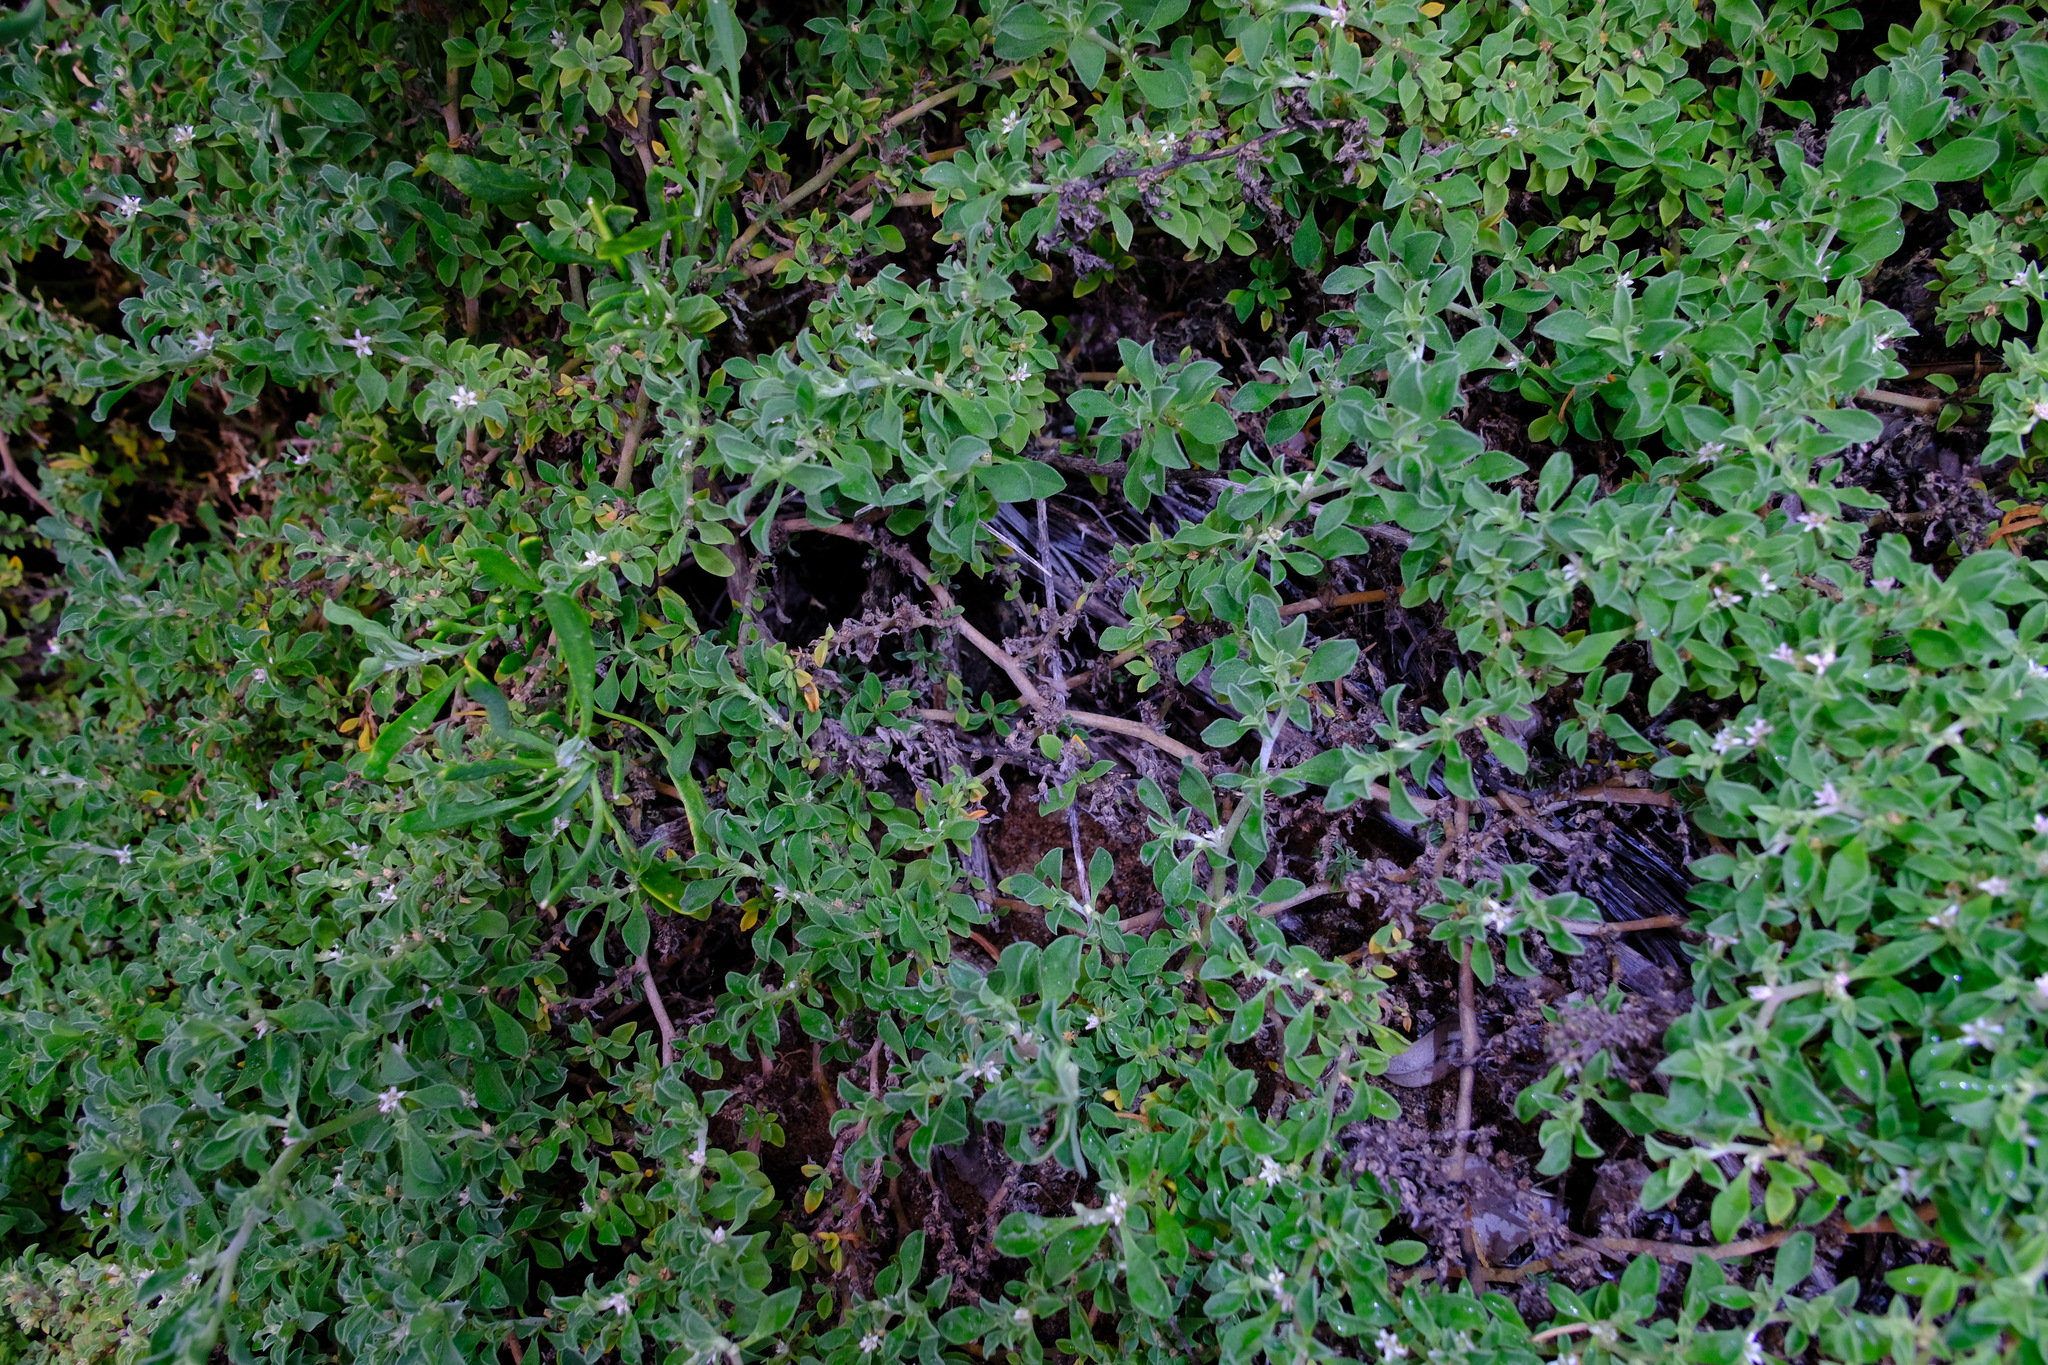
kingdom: Plantae
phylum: Tracheophyta
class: Magnoliopsida
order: Caryophyllales
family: Aizoaceae
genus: Aizoon
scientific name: Aizoon pubescens
